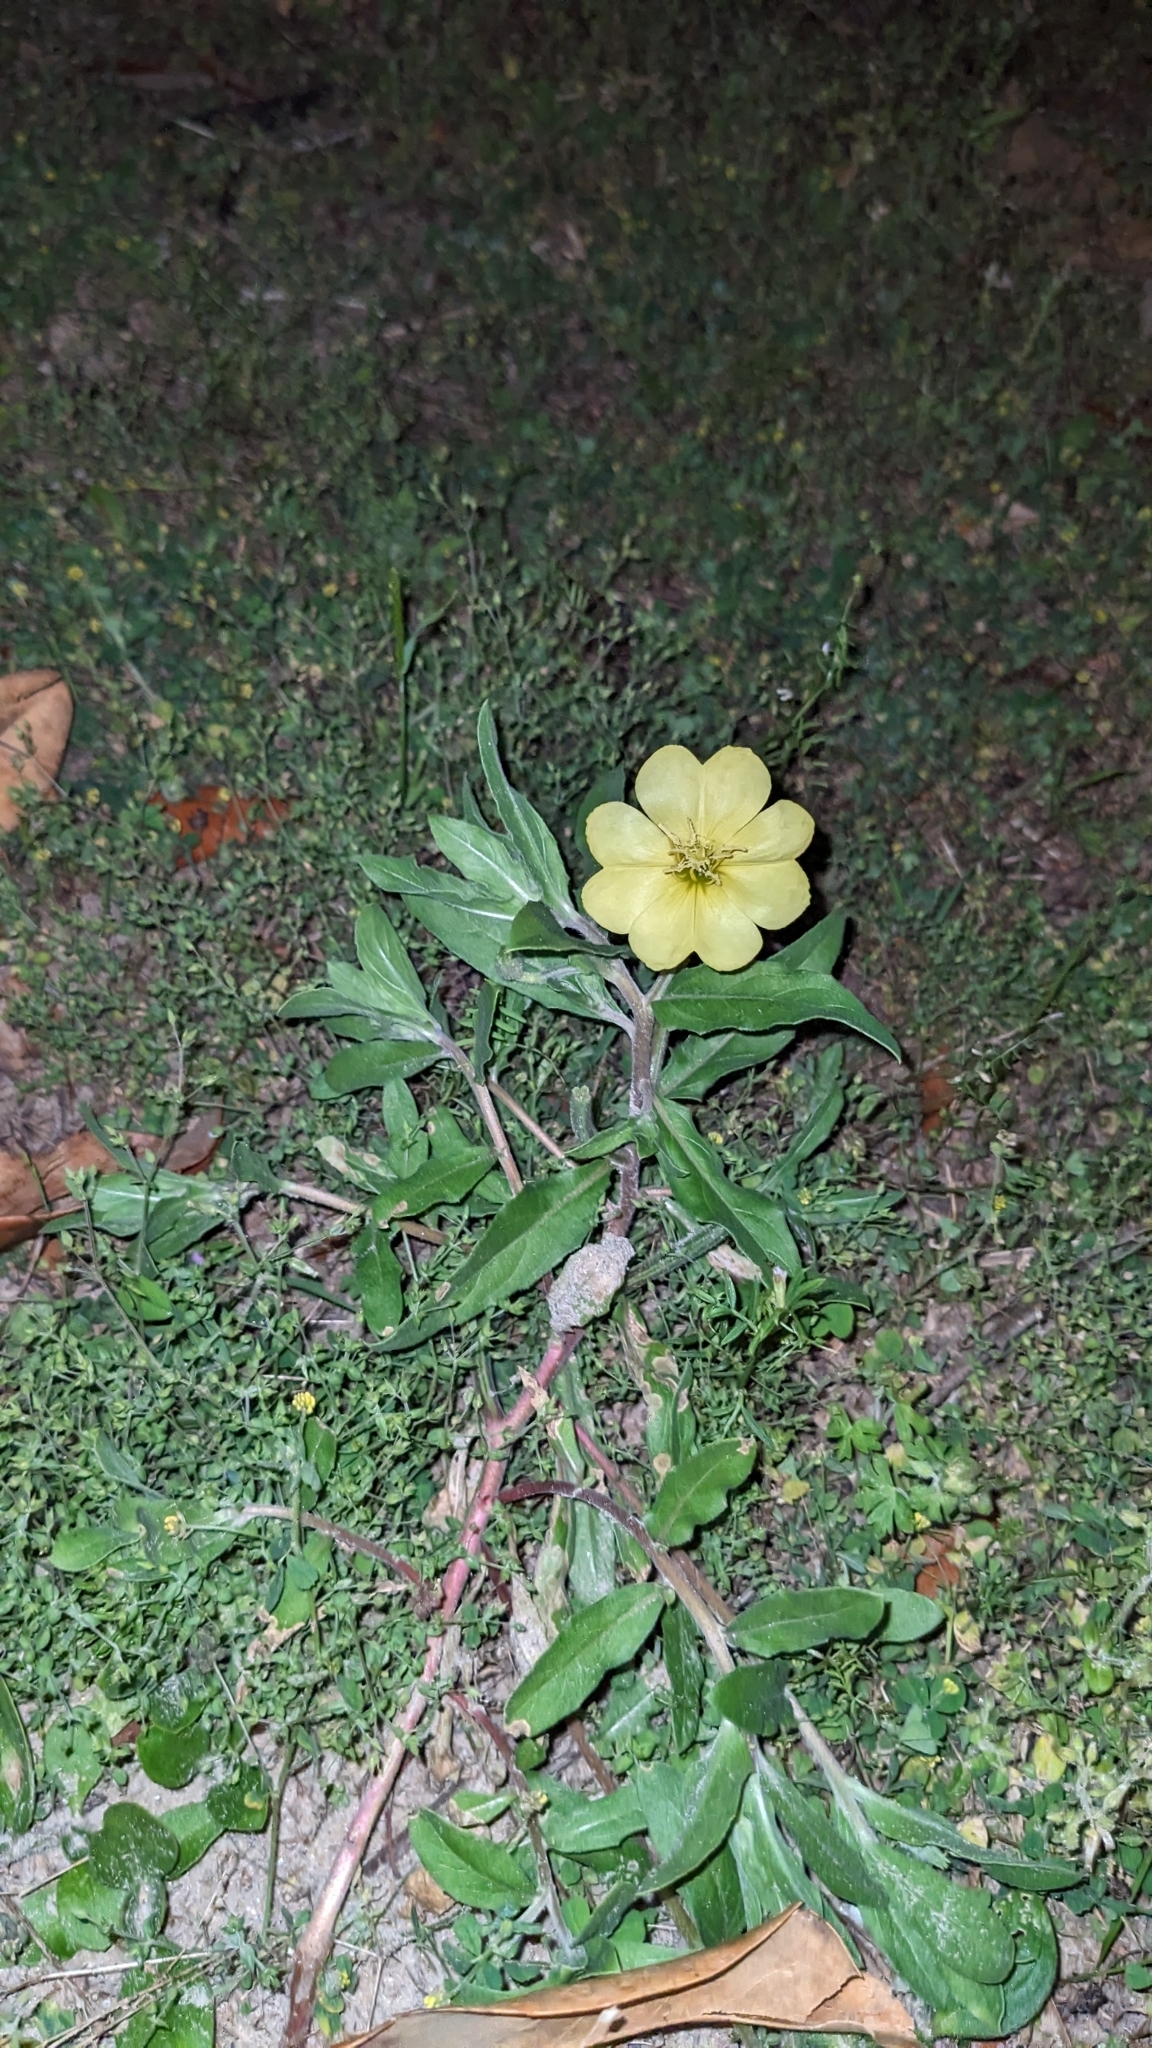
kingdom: Plantae
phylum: Tracheophyta
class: Magnoliopsida
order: Myrtales
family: Onagraceae
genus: Oenothera
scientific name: Oenothera laciniata
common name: Cut-leaved evening-primrose
